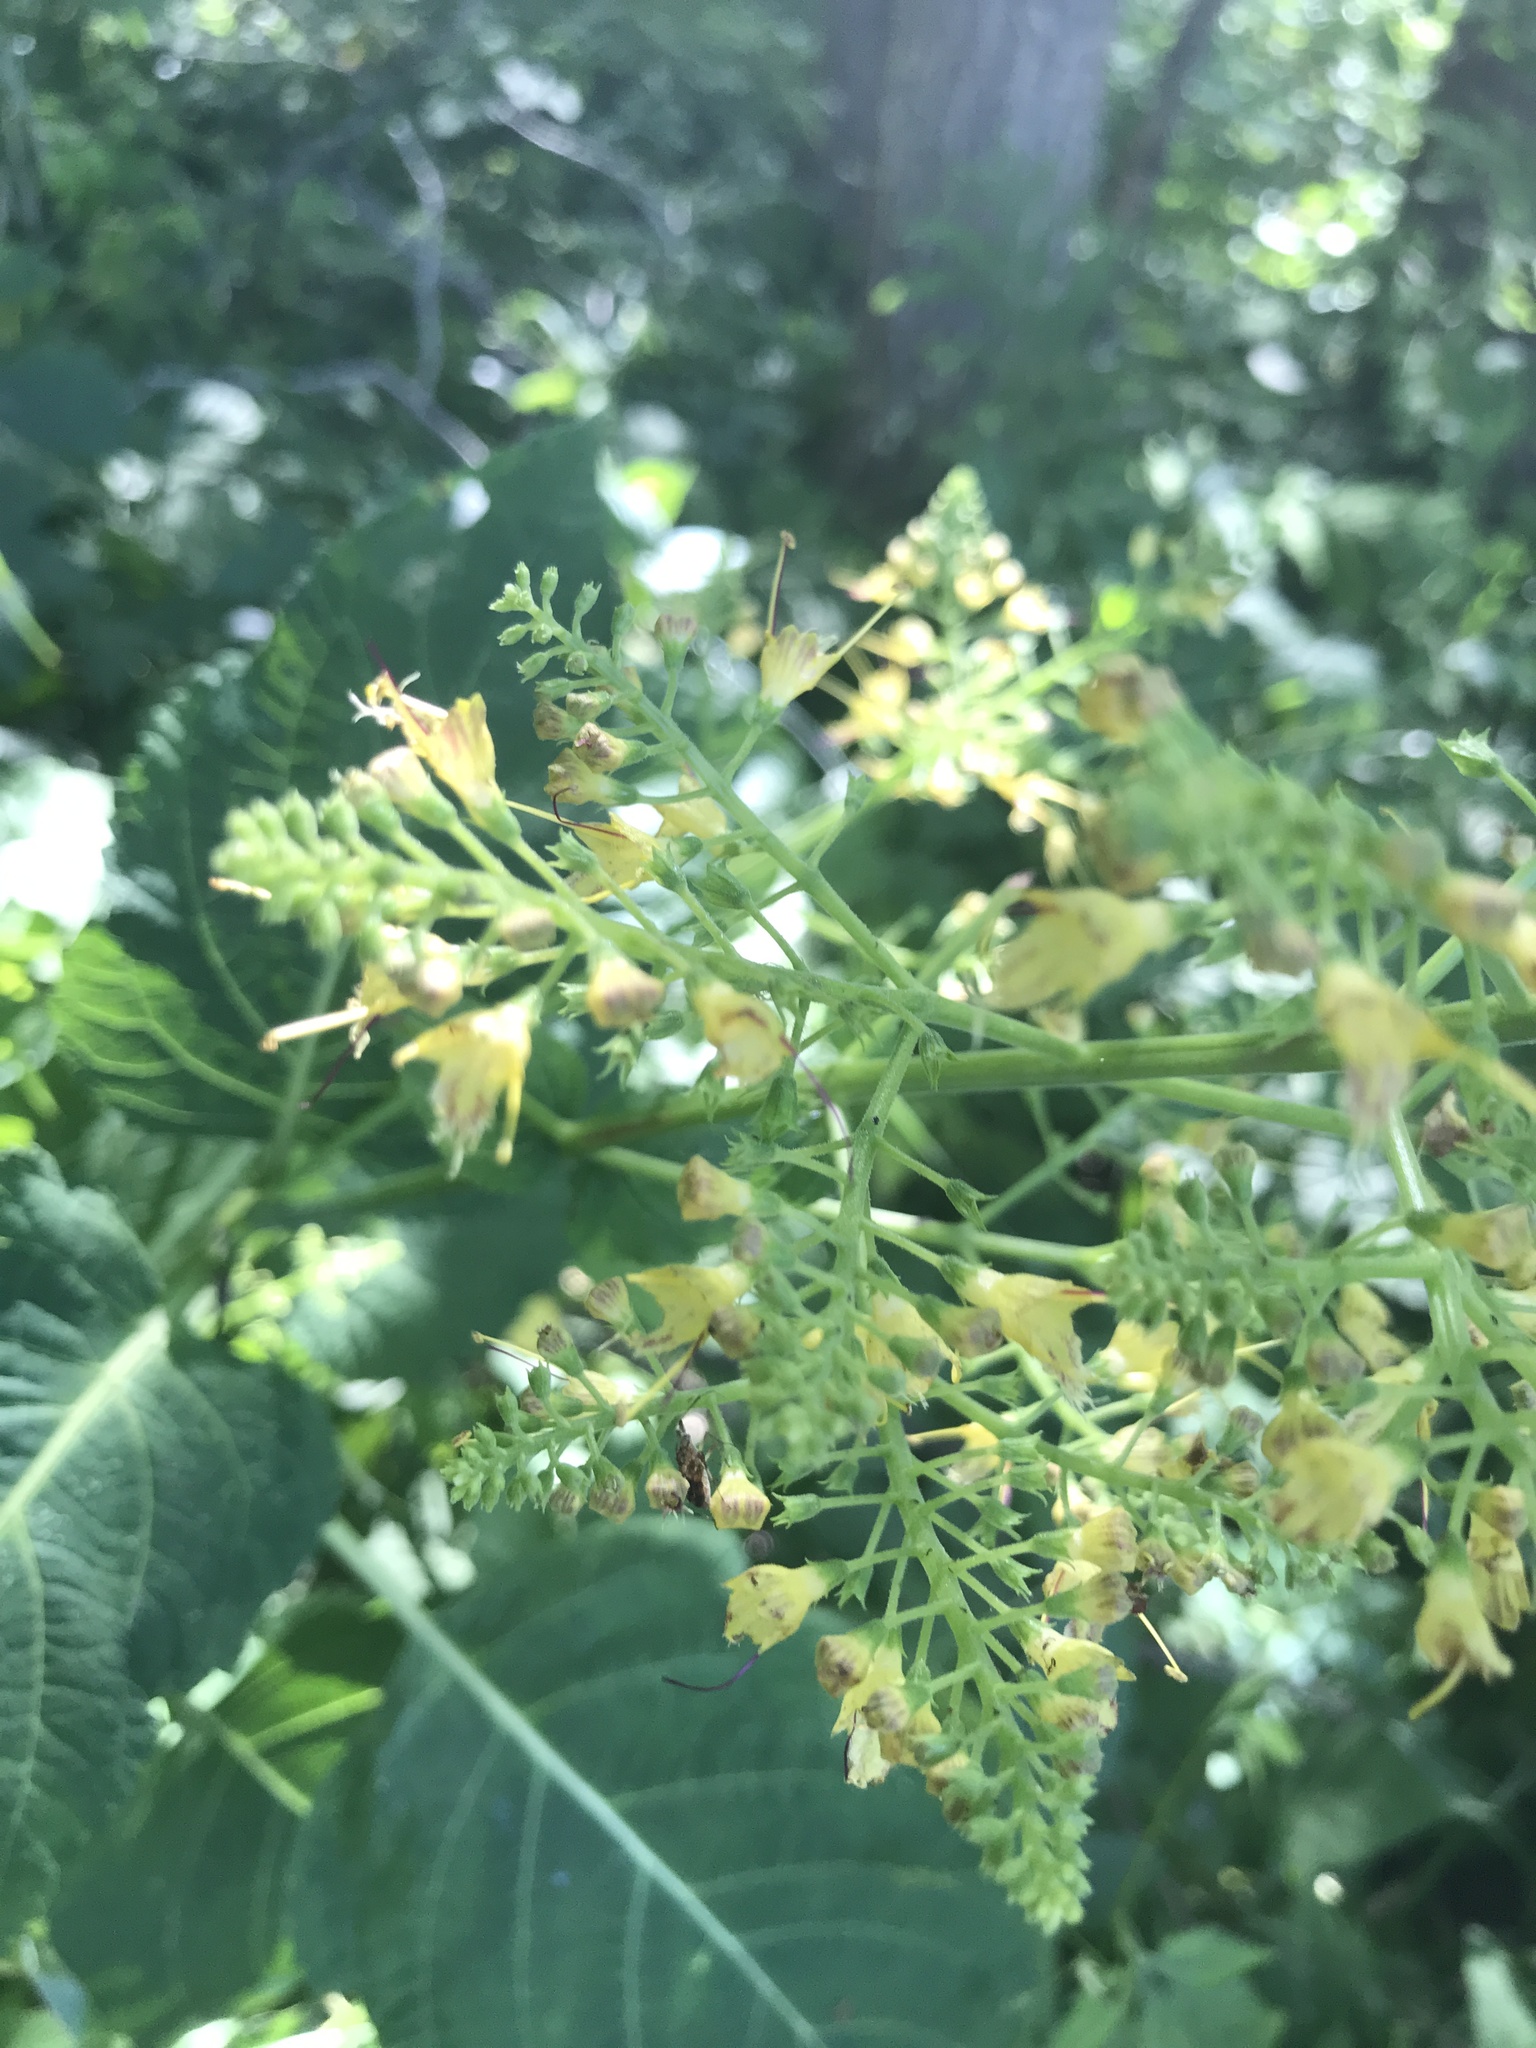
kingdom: Plantae
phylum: Tracheophyta
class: Magnoliopsida
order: Lamiales
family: Lamiaceae
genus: Collinsonia
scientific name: Collinsonia canadensis
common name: Northern horsebalm
